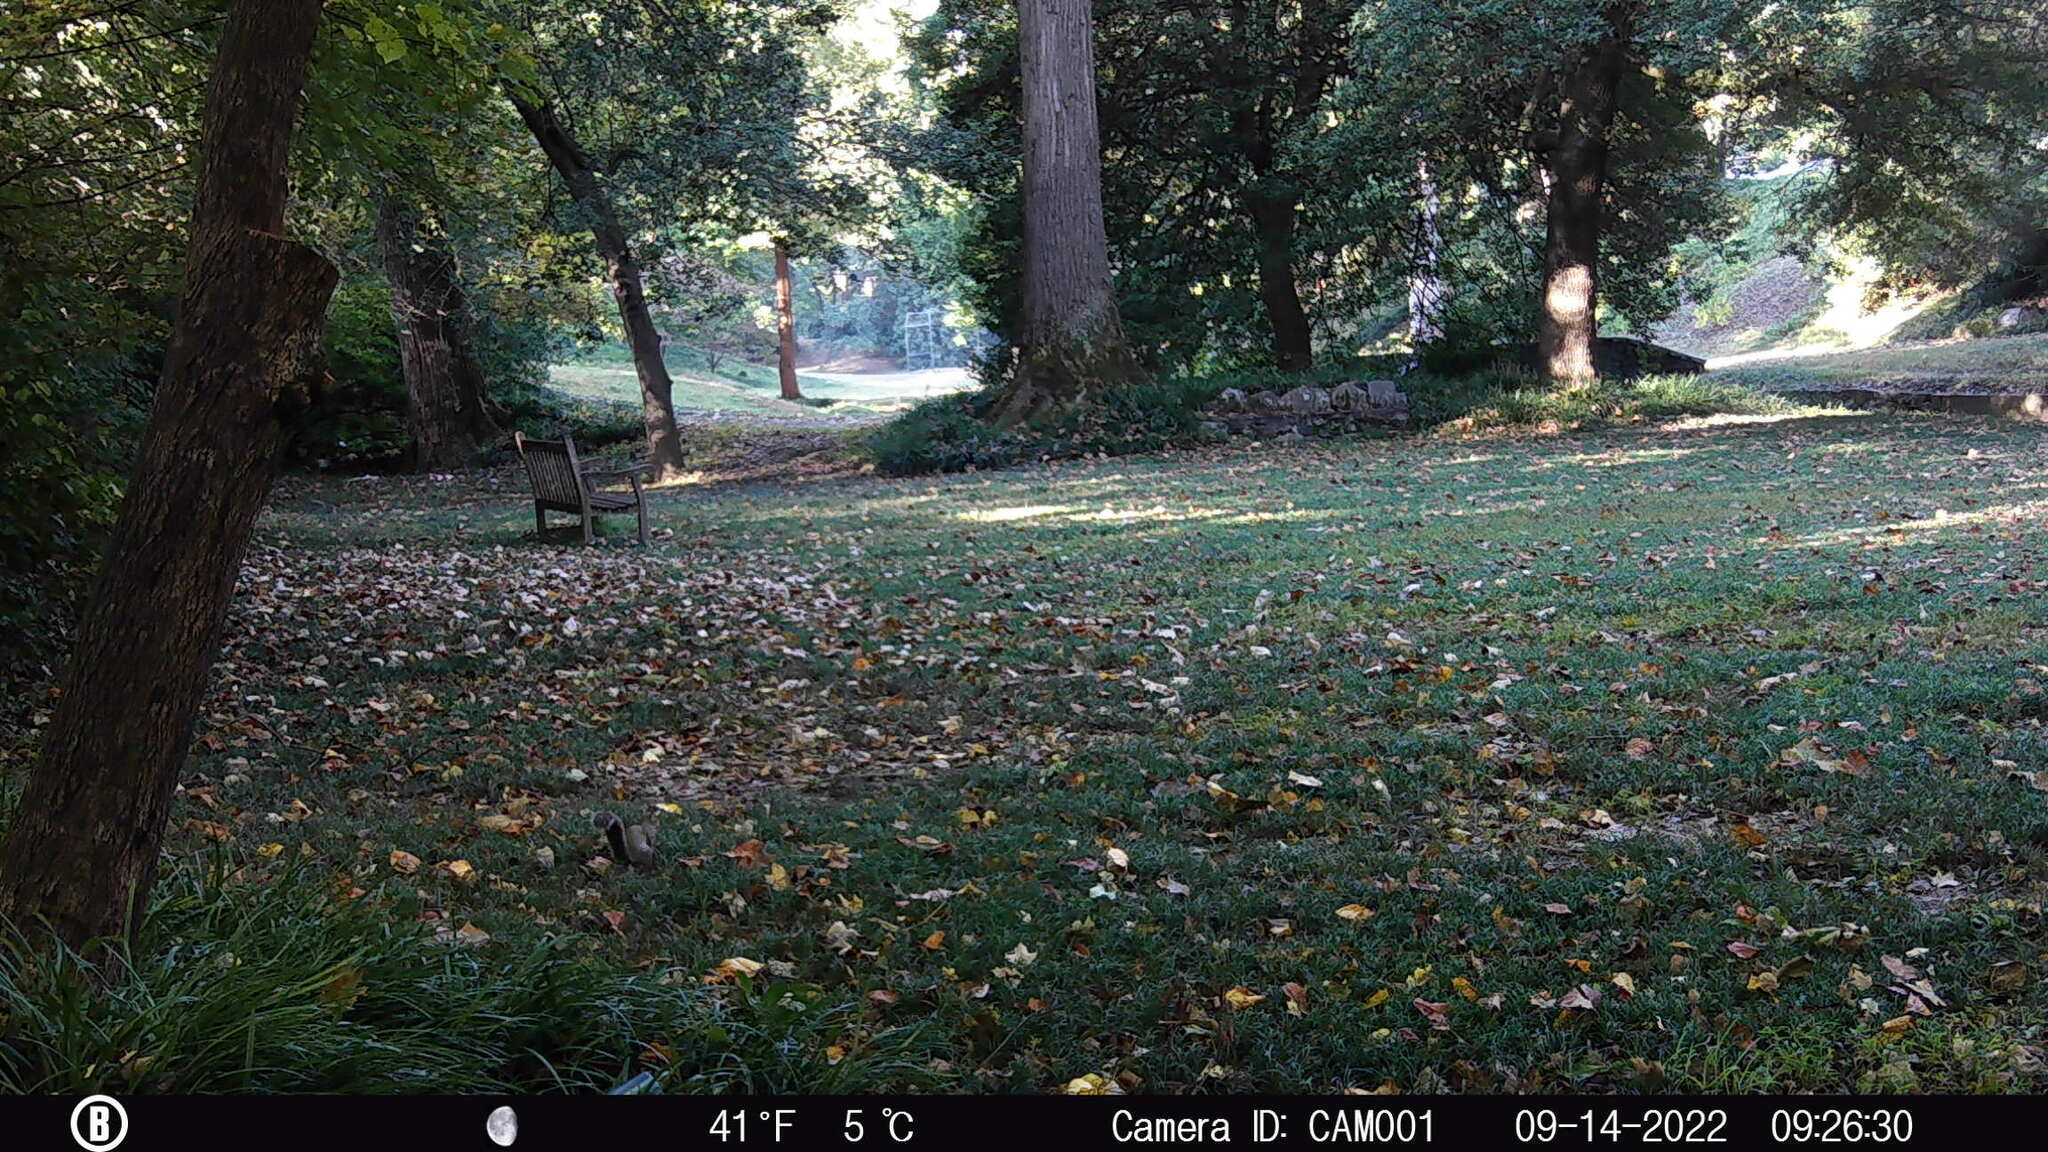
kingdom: Animalia
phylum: Chordata
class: Mammalia
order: Rodentia
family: Sciuridae
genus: Sciurus
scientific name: Sciurus carolinensis
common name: Eastern gray squirrel
